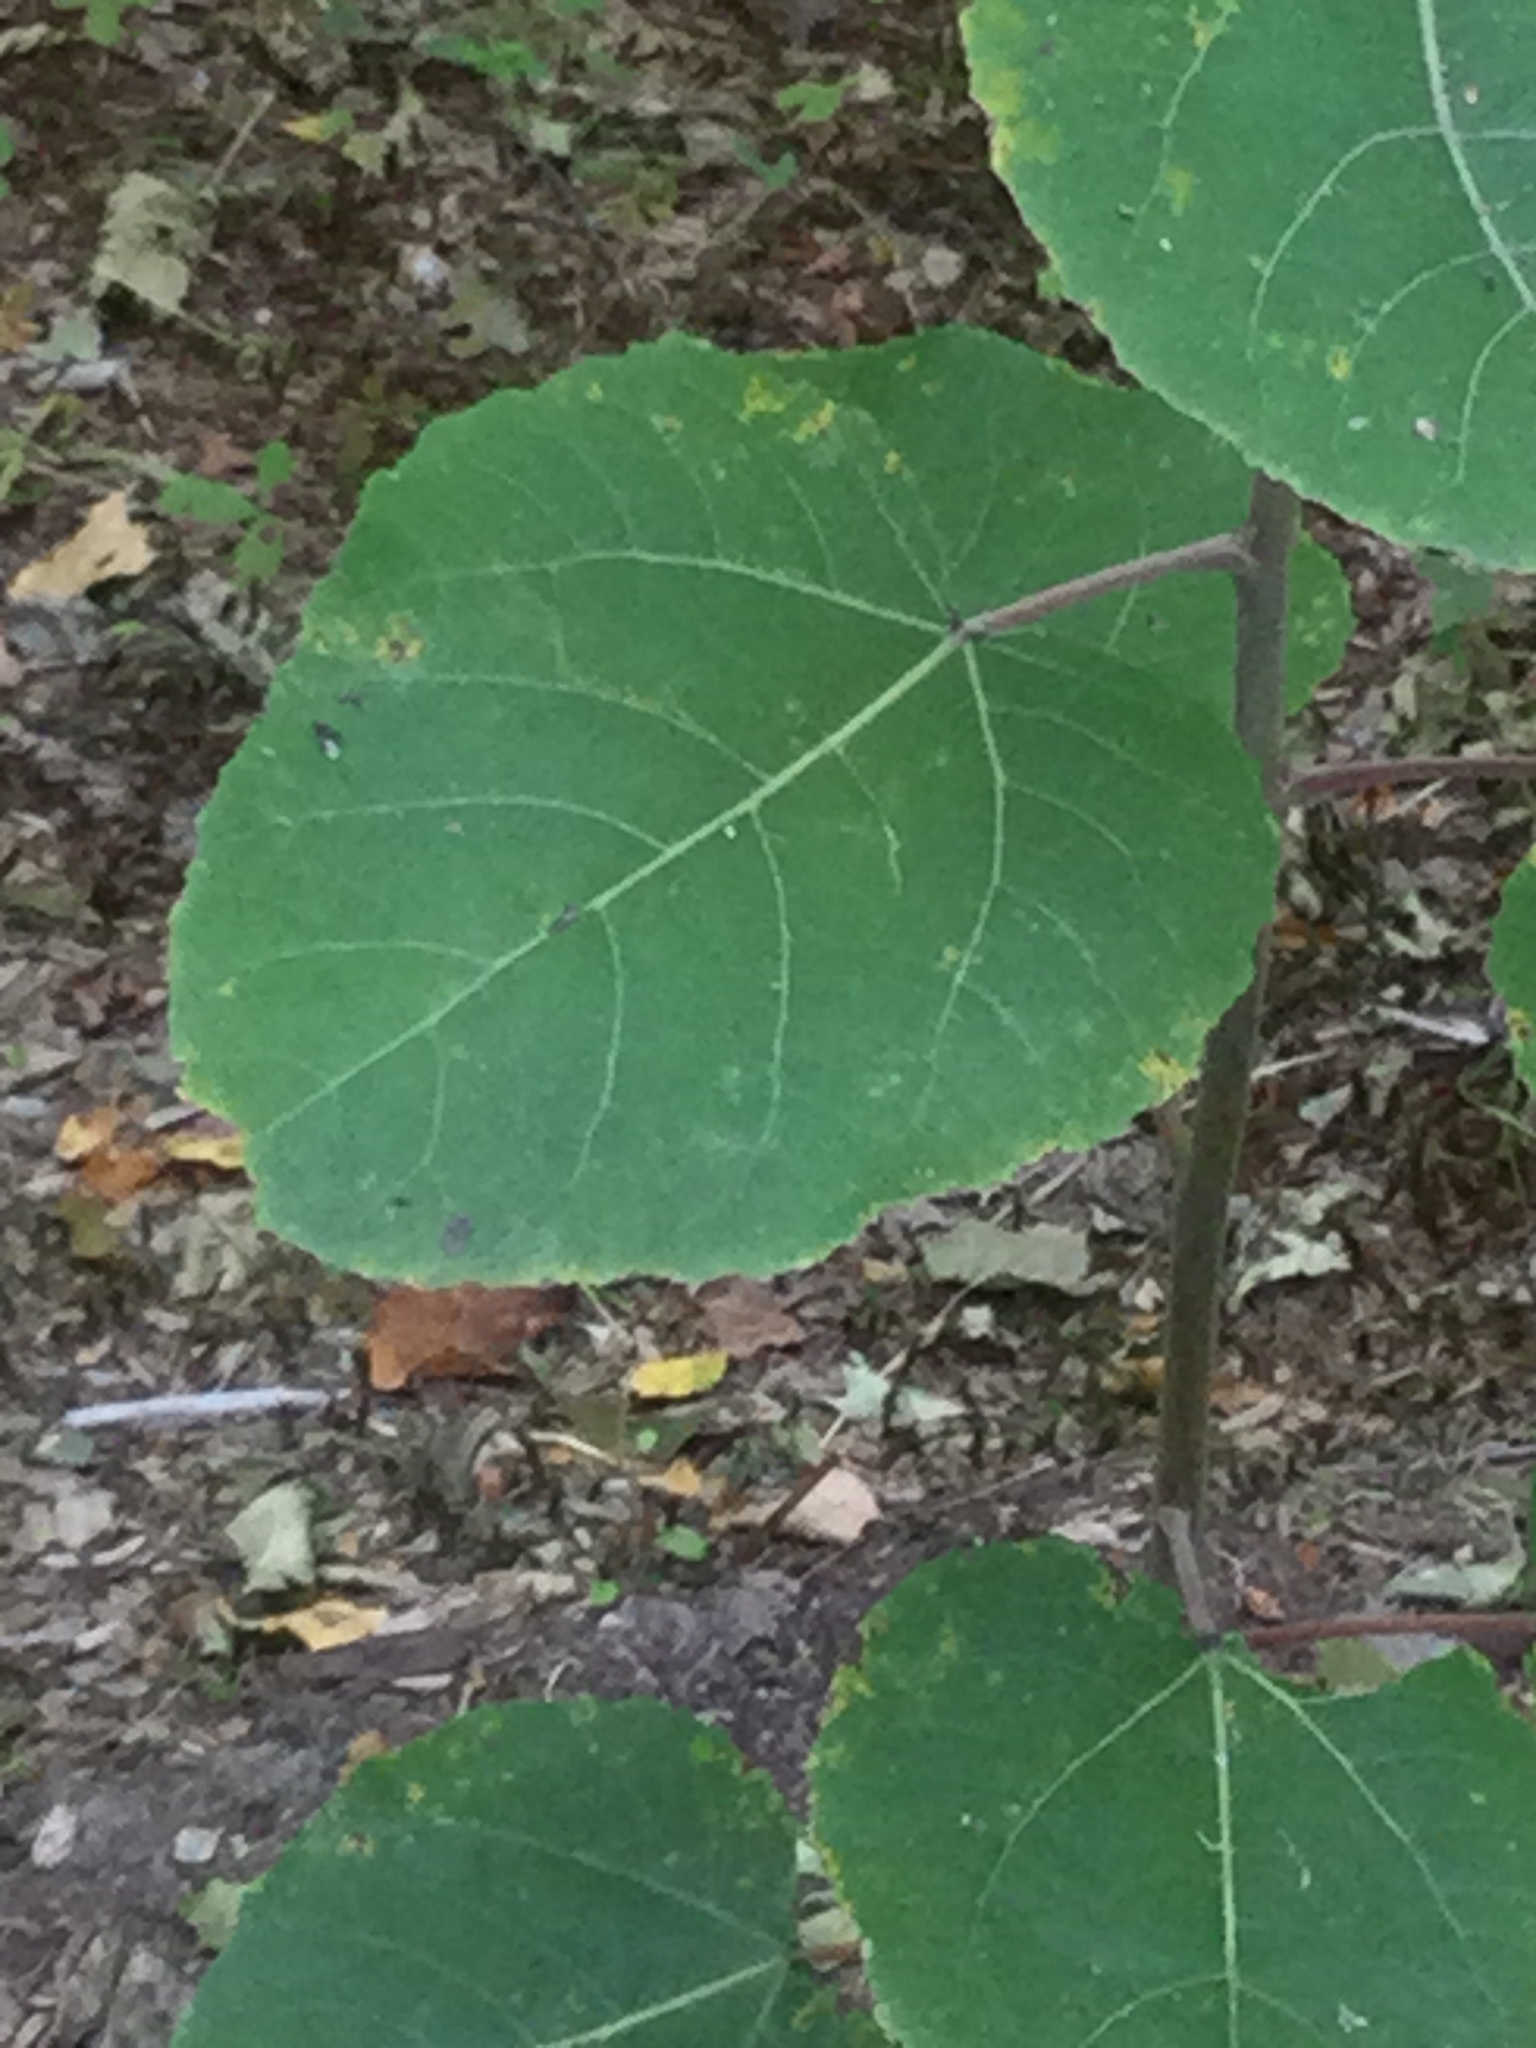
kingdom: Plantae
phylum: Tracheophyta
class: Magnoliopsida
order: Malvales
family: Malvaceae
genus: Tilia
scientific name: Tilia americana
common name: Basswood
